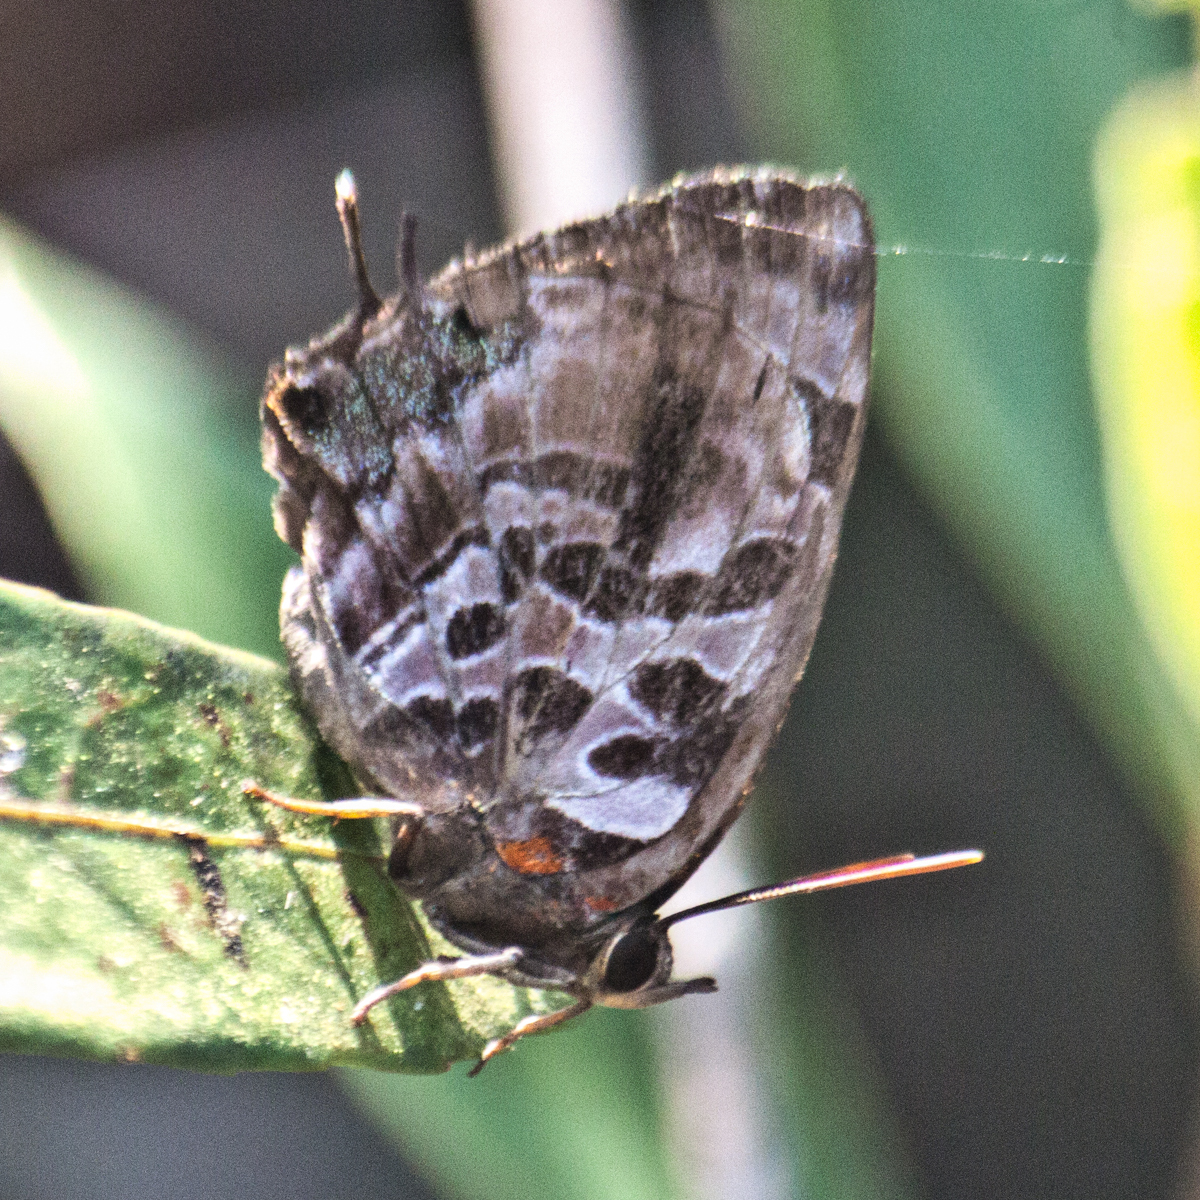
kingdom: Animalia
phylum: Arthropoda
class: Insecta
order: Lepidoptera
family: Lycaenidae
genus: Flos
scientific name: Flos
